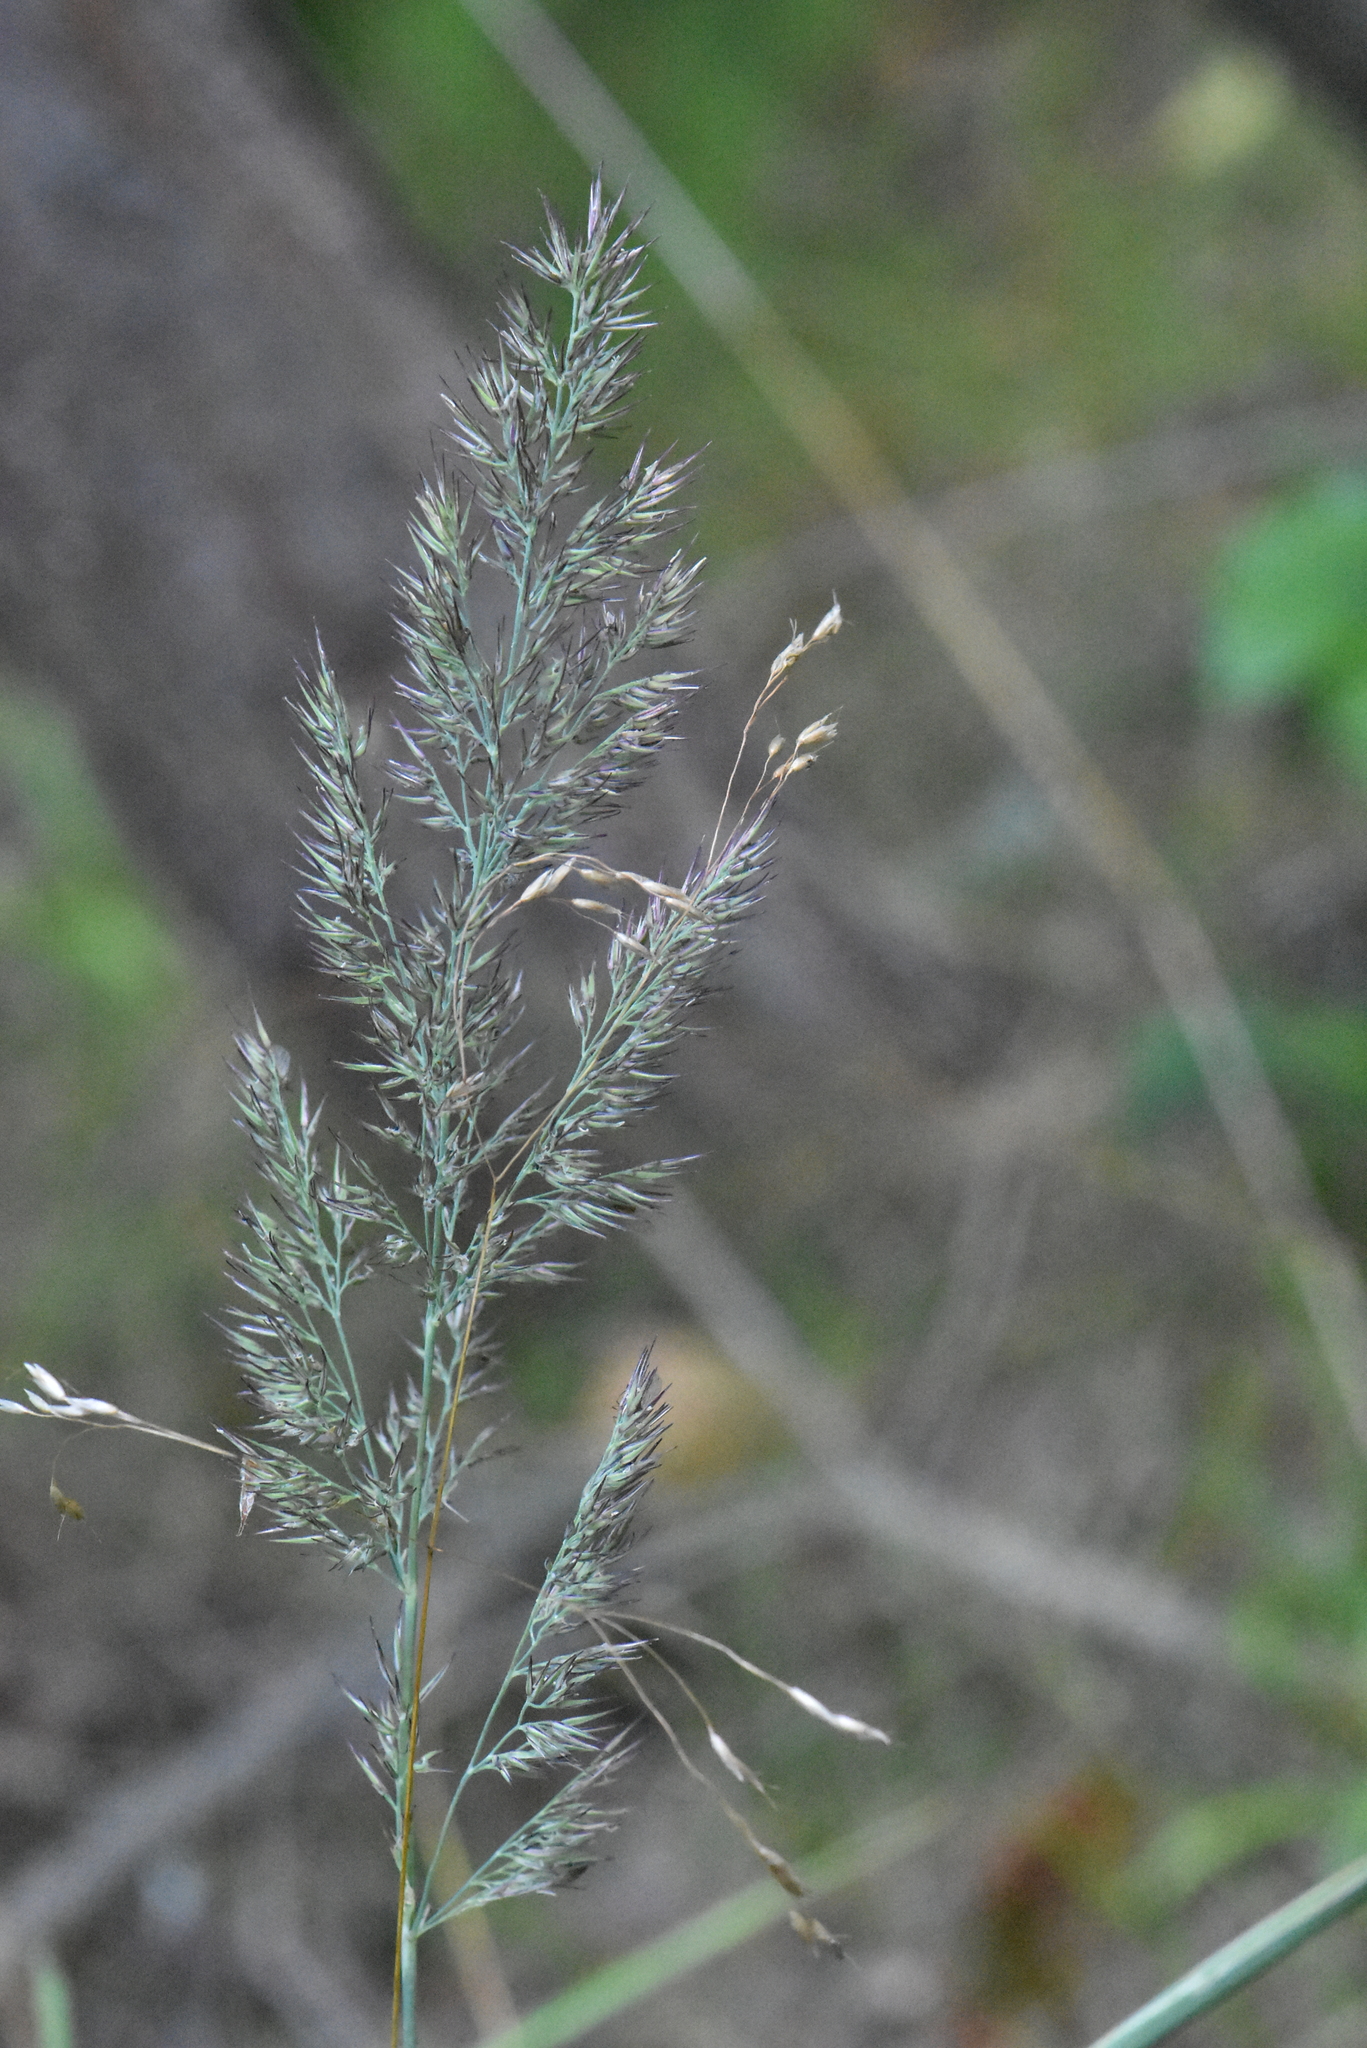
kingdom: Plantae
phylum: Tracheophyta
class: Liliopsida
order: Poales
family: Poaceae
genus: Calamagrostis
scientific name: Calamagrostis epigejos
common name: Wood small-reed
